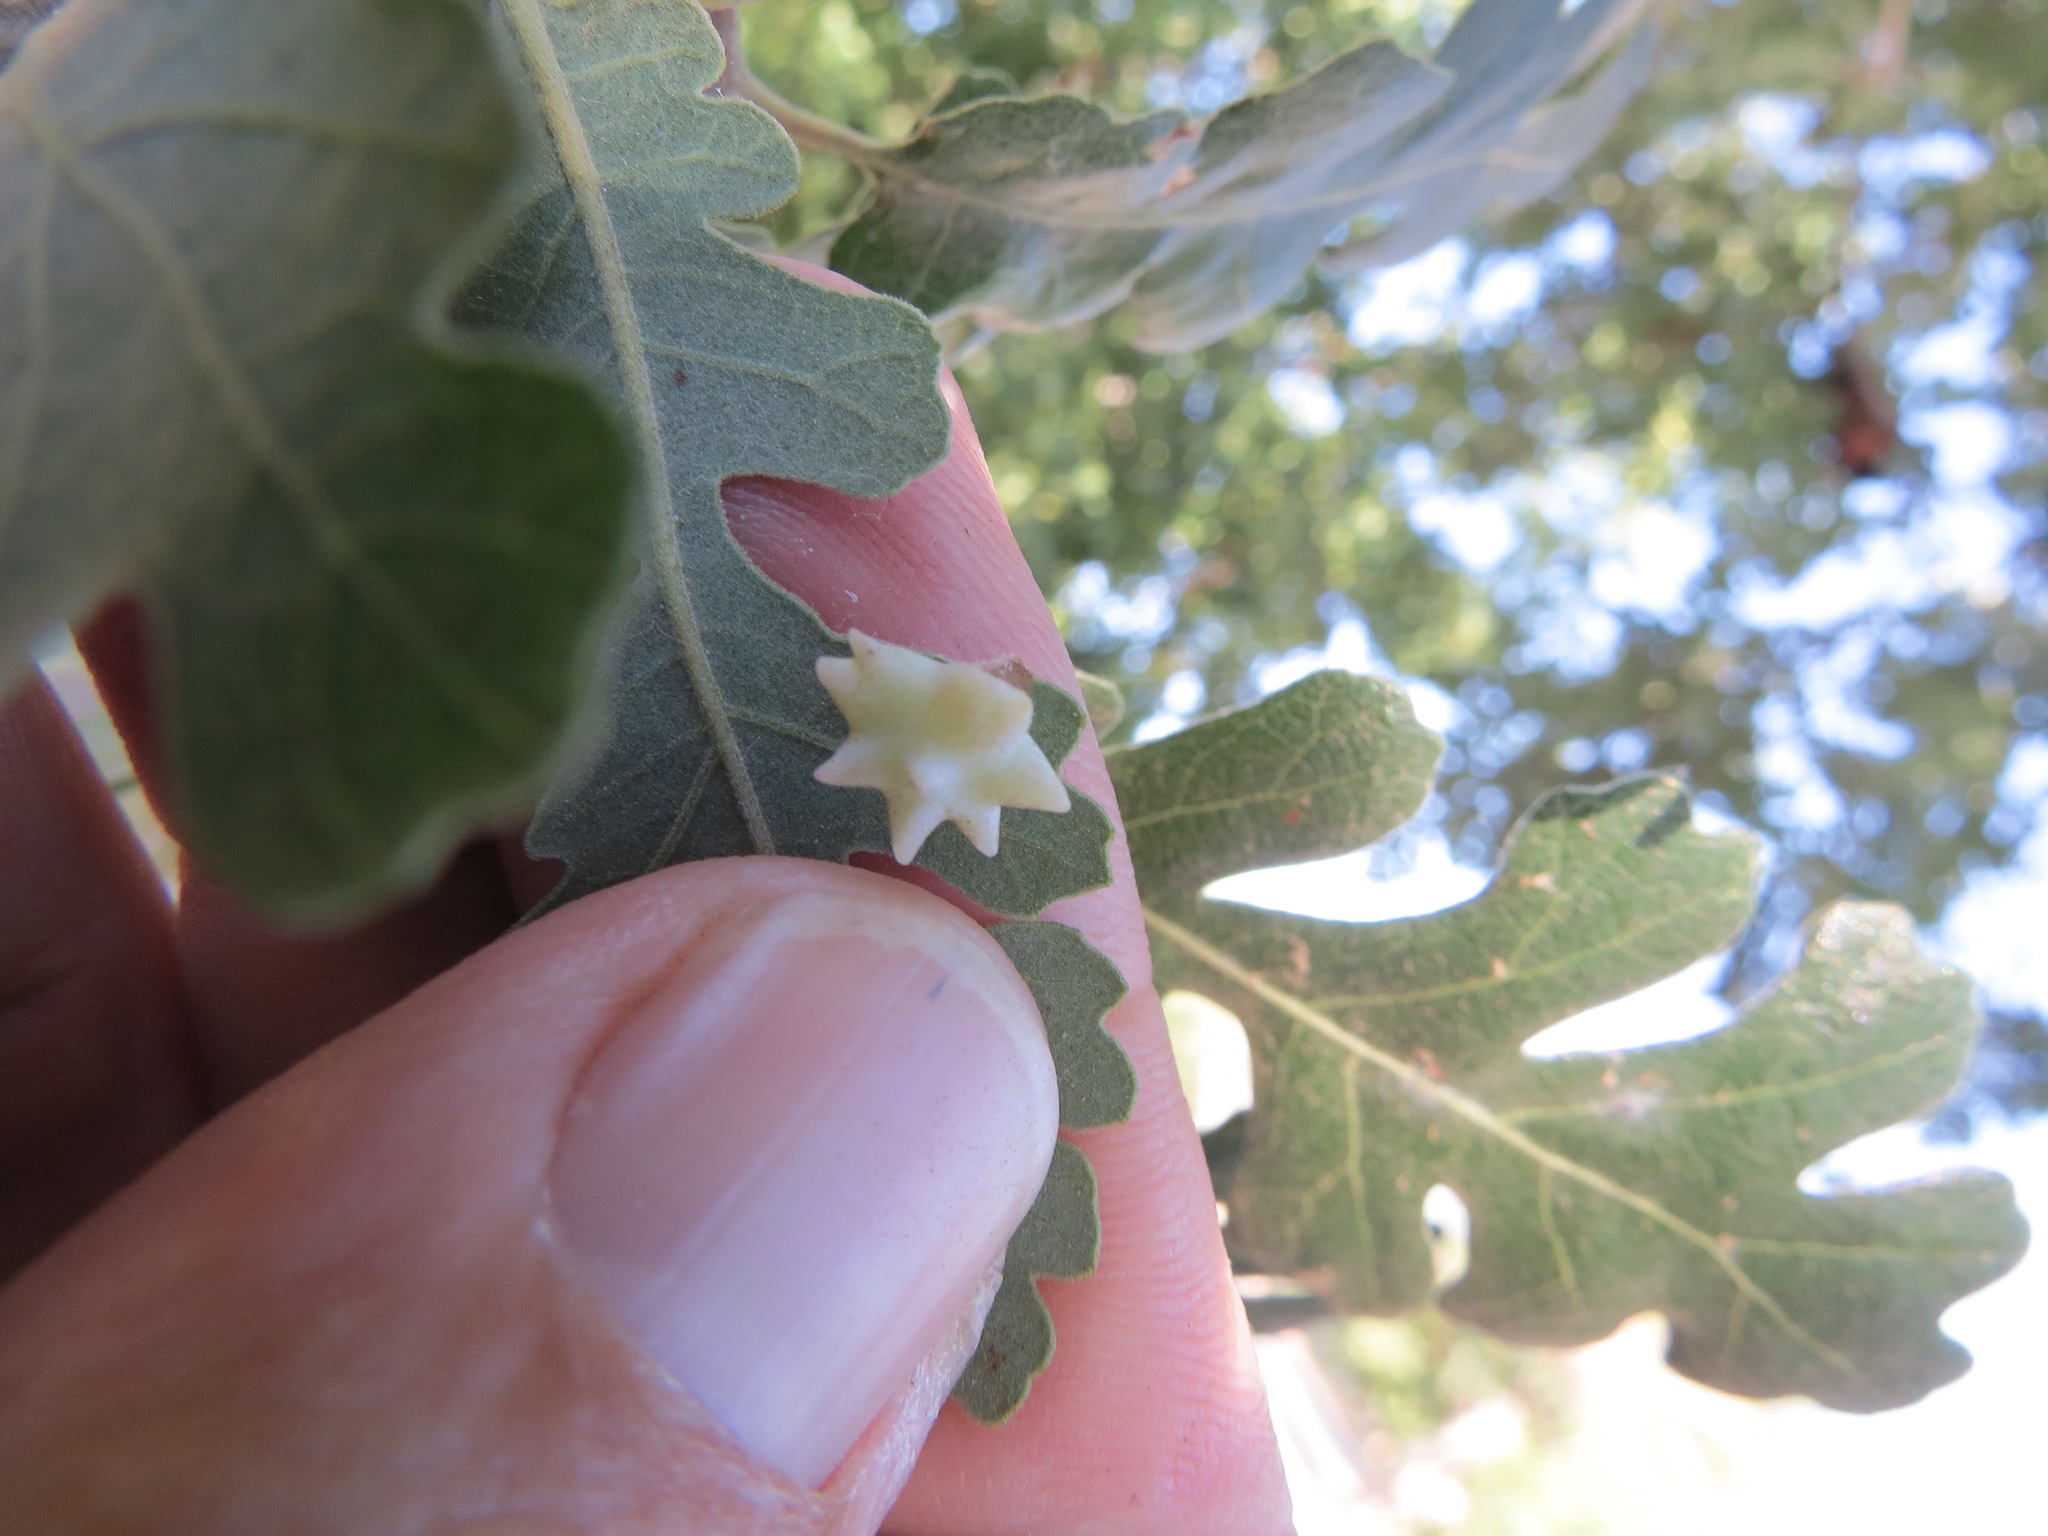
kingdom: Animalia
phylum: Arthropoda
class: Insecta
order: Hymenoptera
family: Cynipidae
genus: Cynips
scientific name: Cynips douglasi
